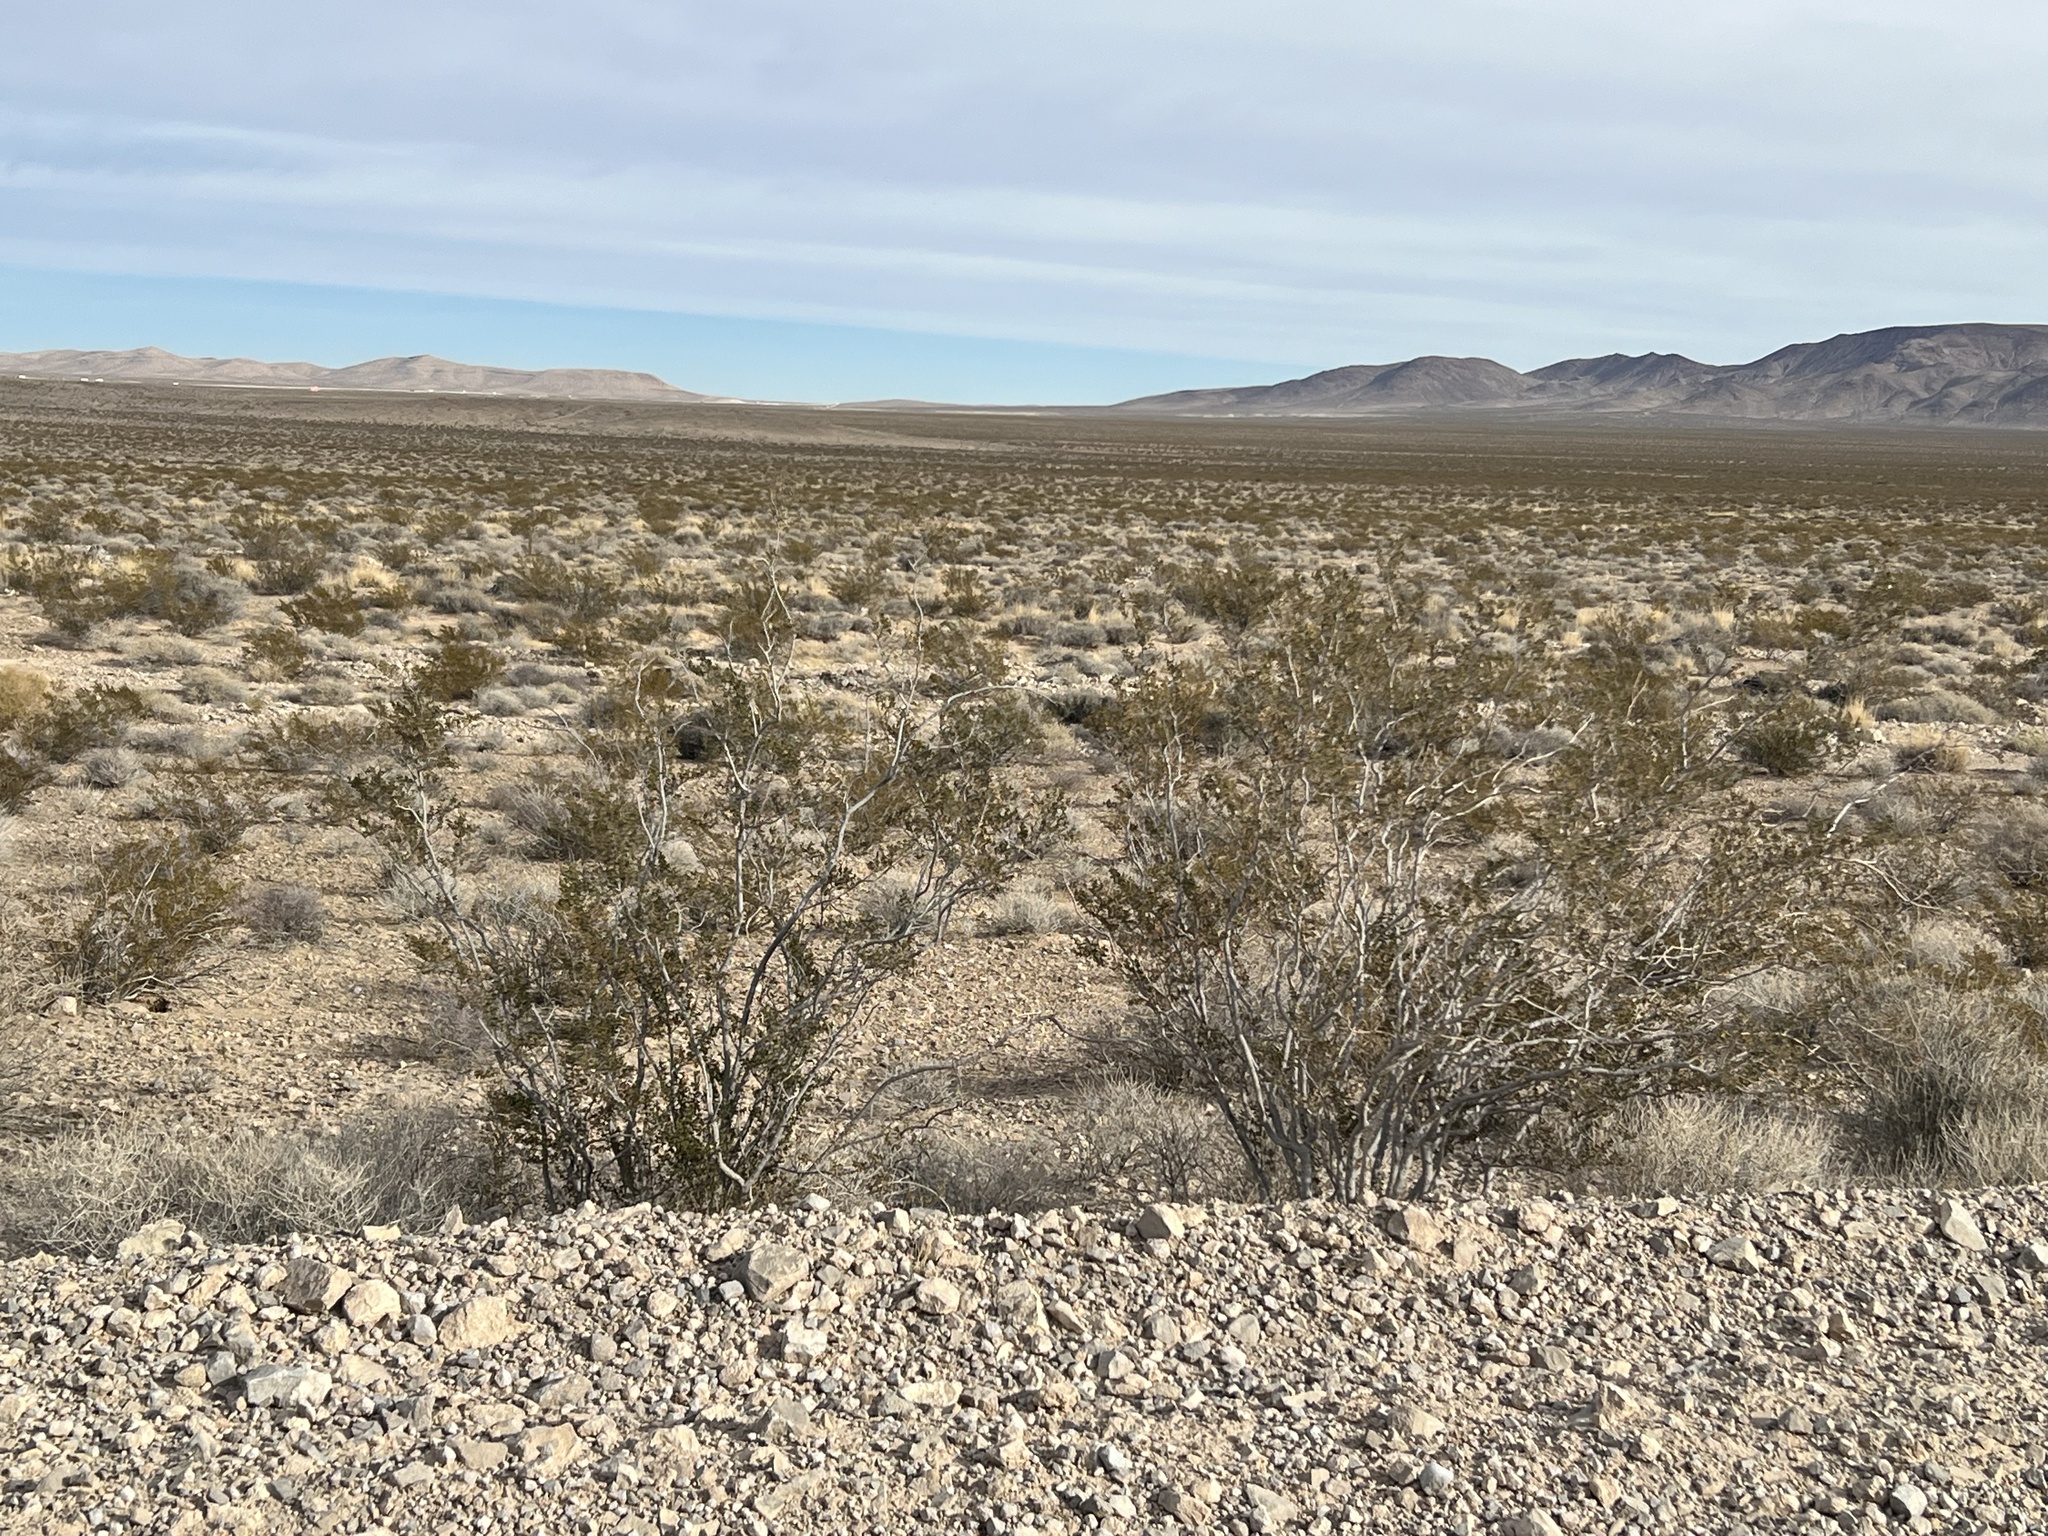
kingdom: Plantae
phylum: Tracheophyta
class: Magnoliopsida
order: Zygophyllales
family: Zygophyllaceae
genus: Larrea
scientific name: Larrea tridentata
